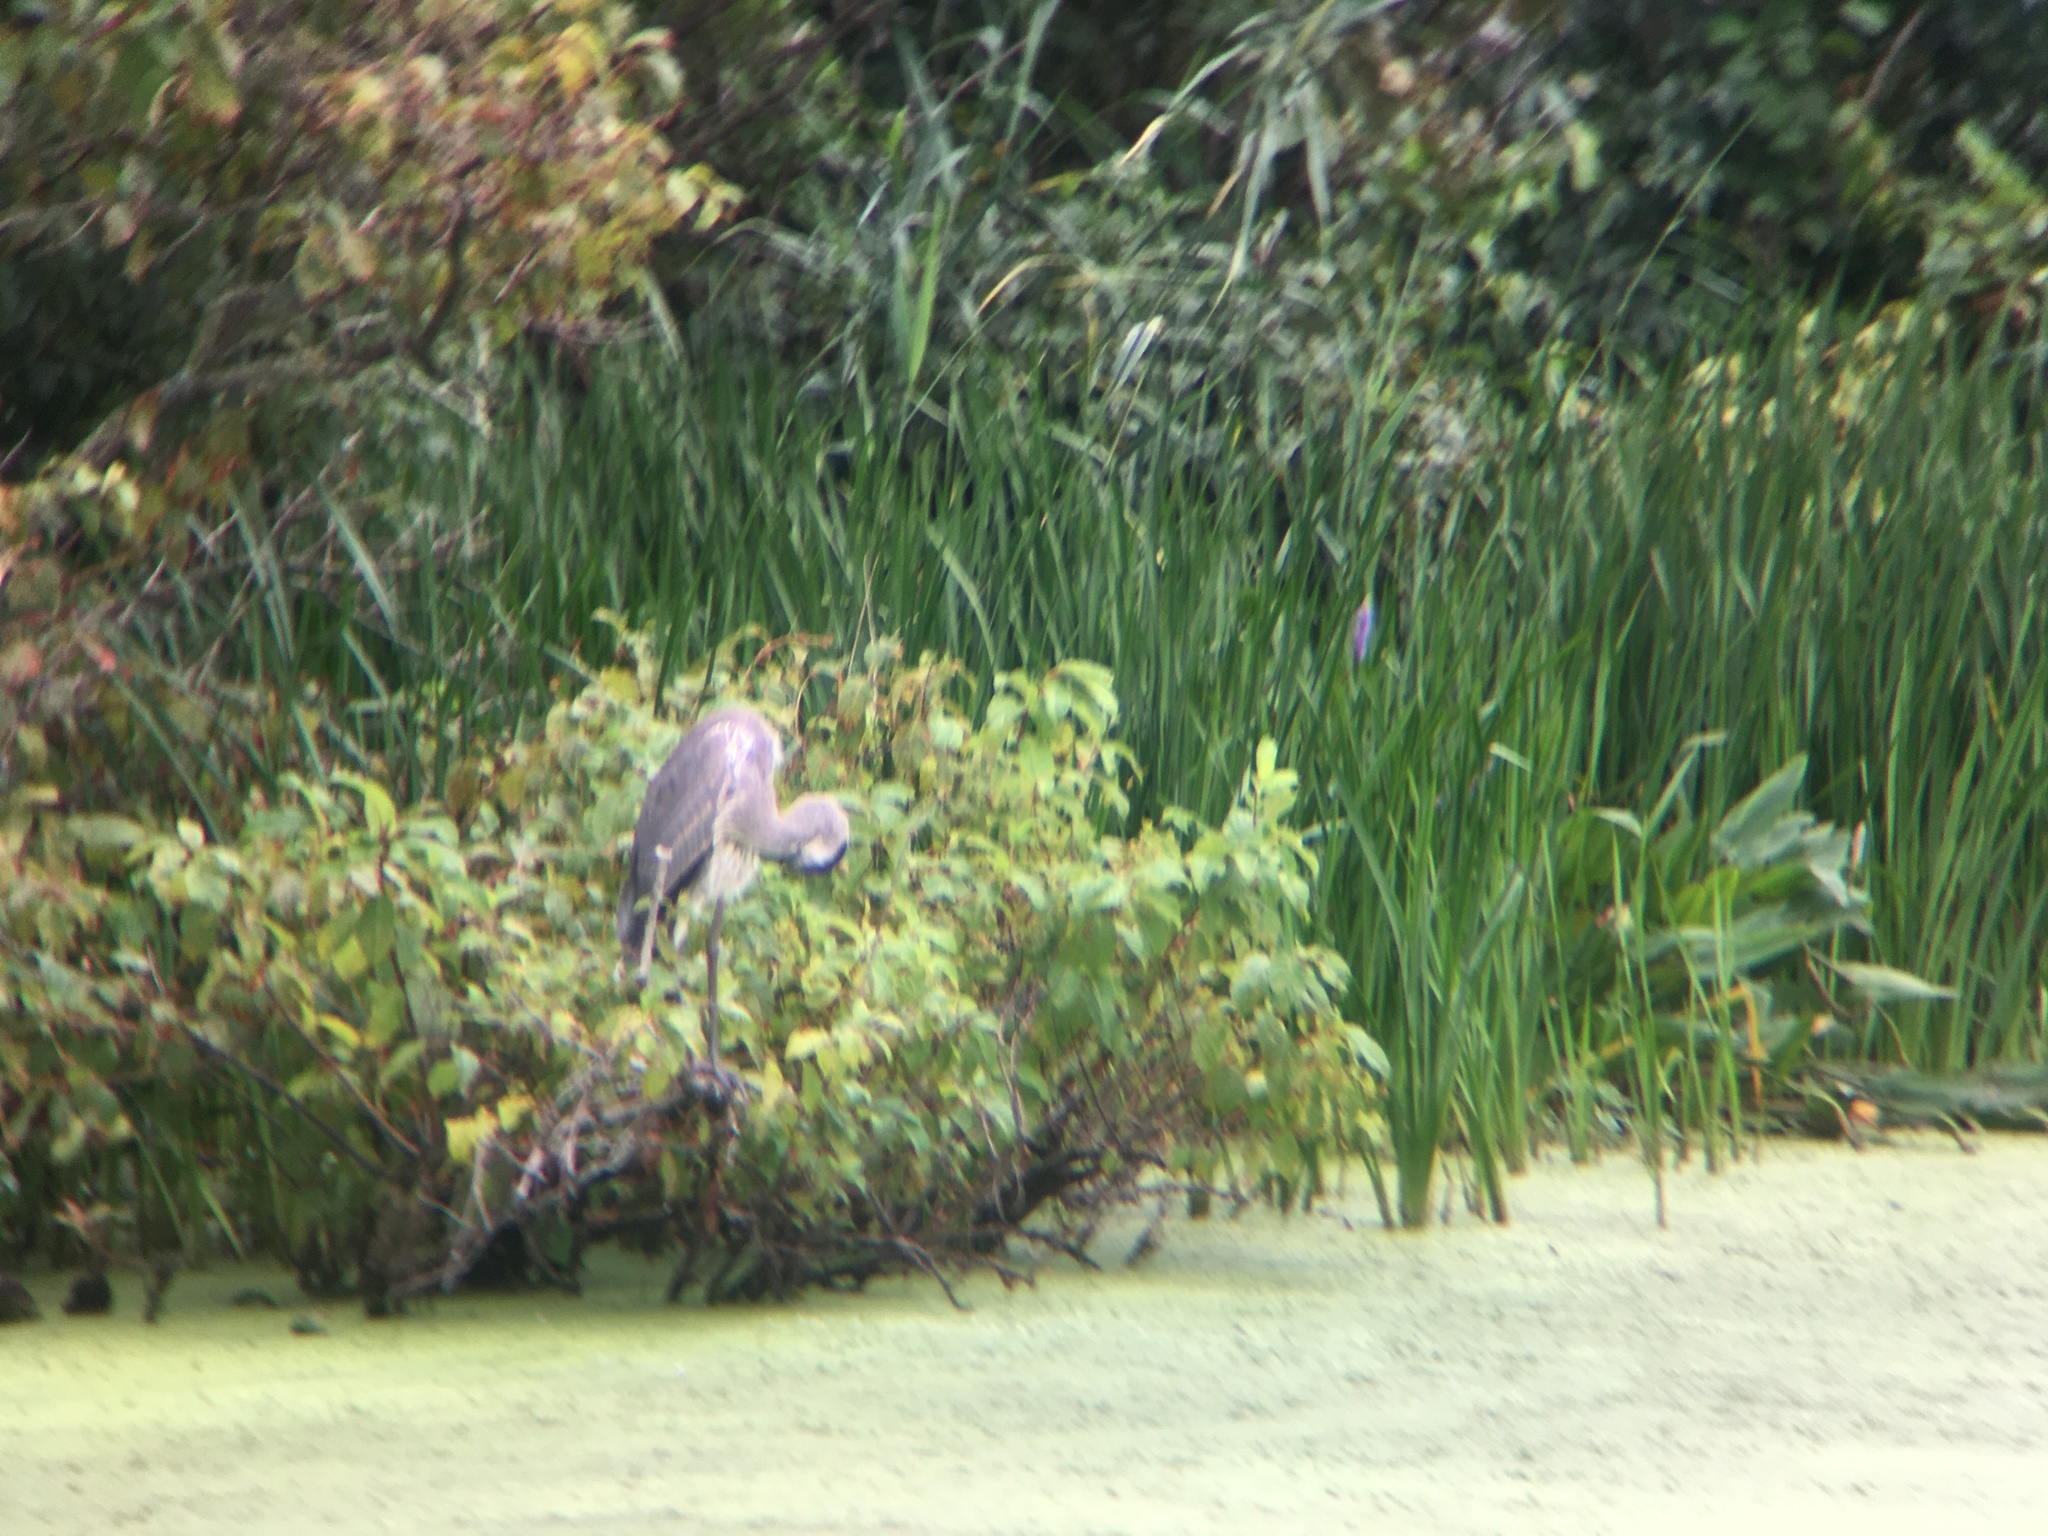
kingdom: Animalia
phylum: Chordata
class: Aves
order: Pelecaniformes
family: Ardeidae
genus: Ardea
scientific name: Ardea herodias
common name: Great blue heron
